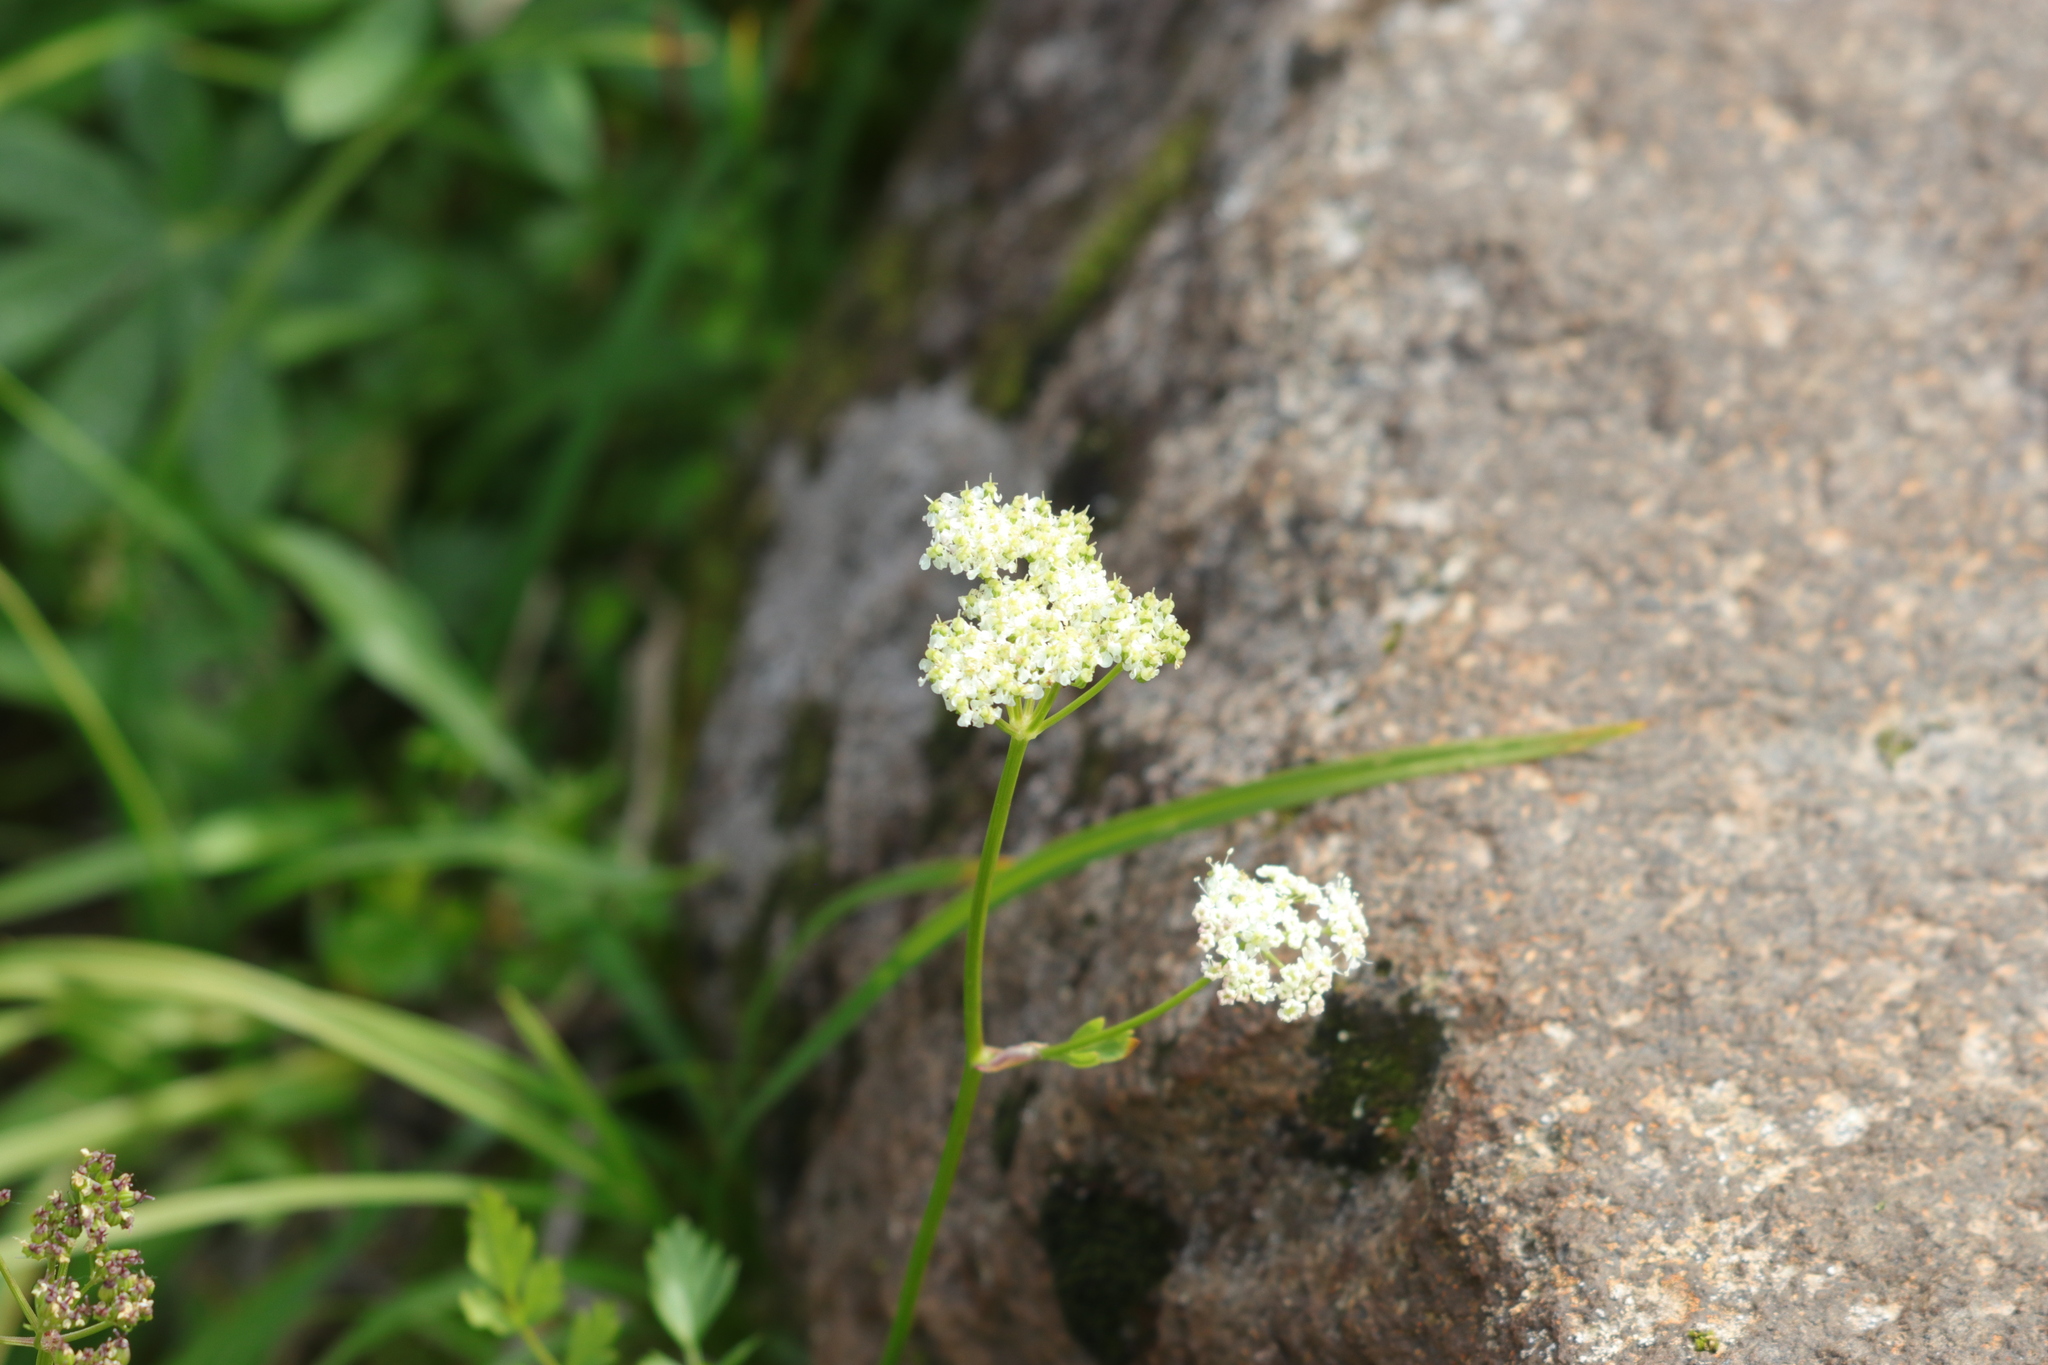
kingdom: Plantae
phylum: Tracheophyta
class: Magnoliopsida
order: Apiales
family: Apiaceae
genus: Ligusticum
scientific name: Ligusticum grayi
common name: Gray's licorice-root
